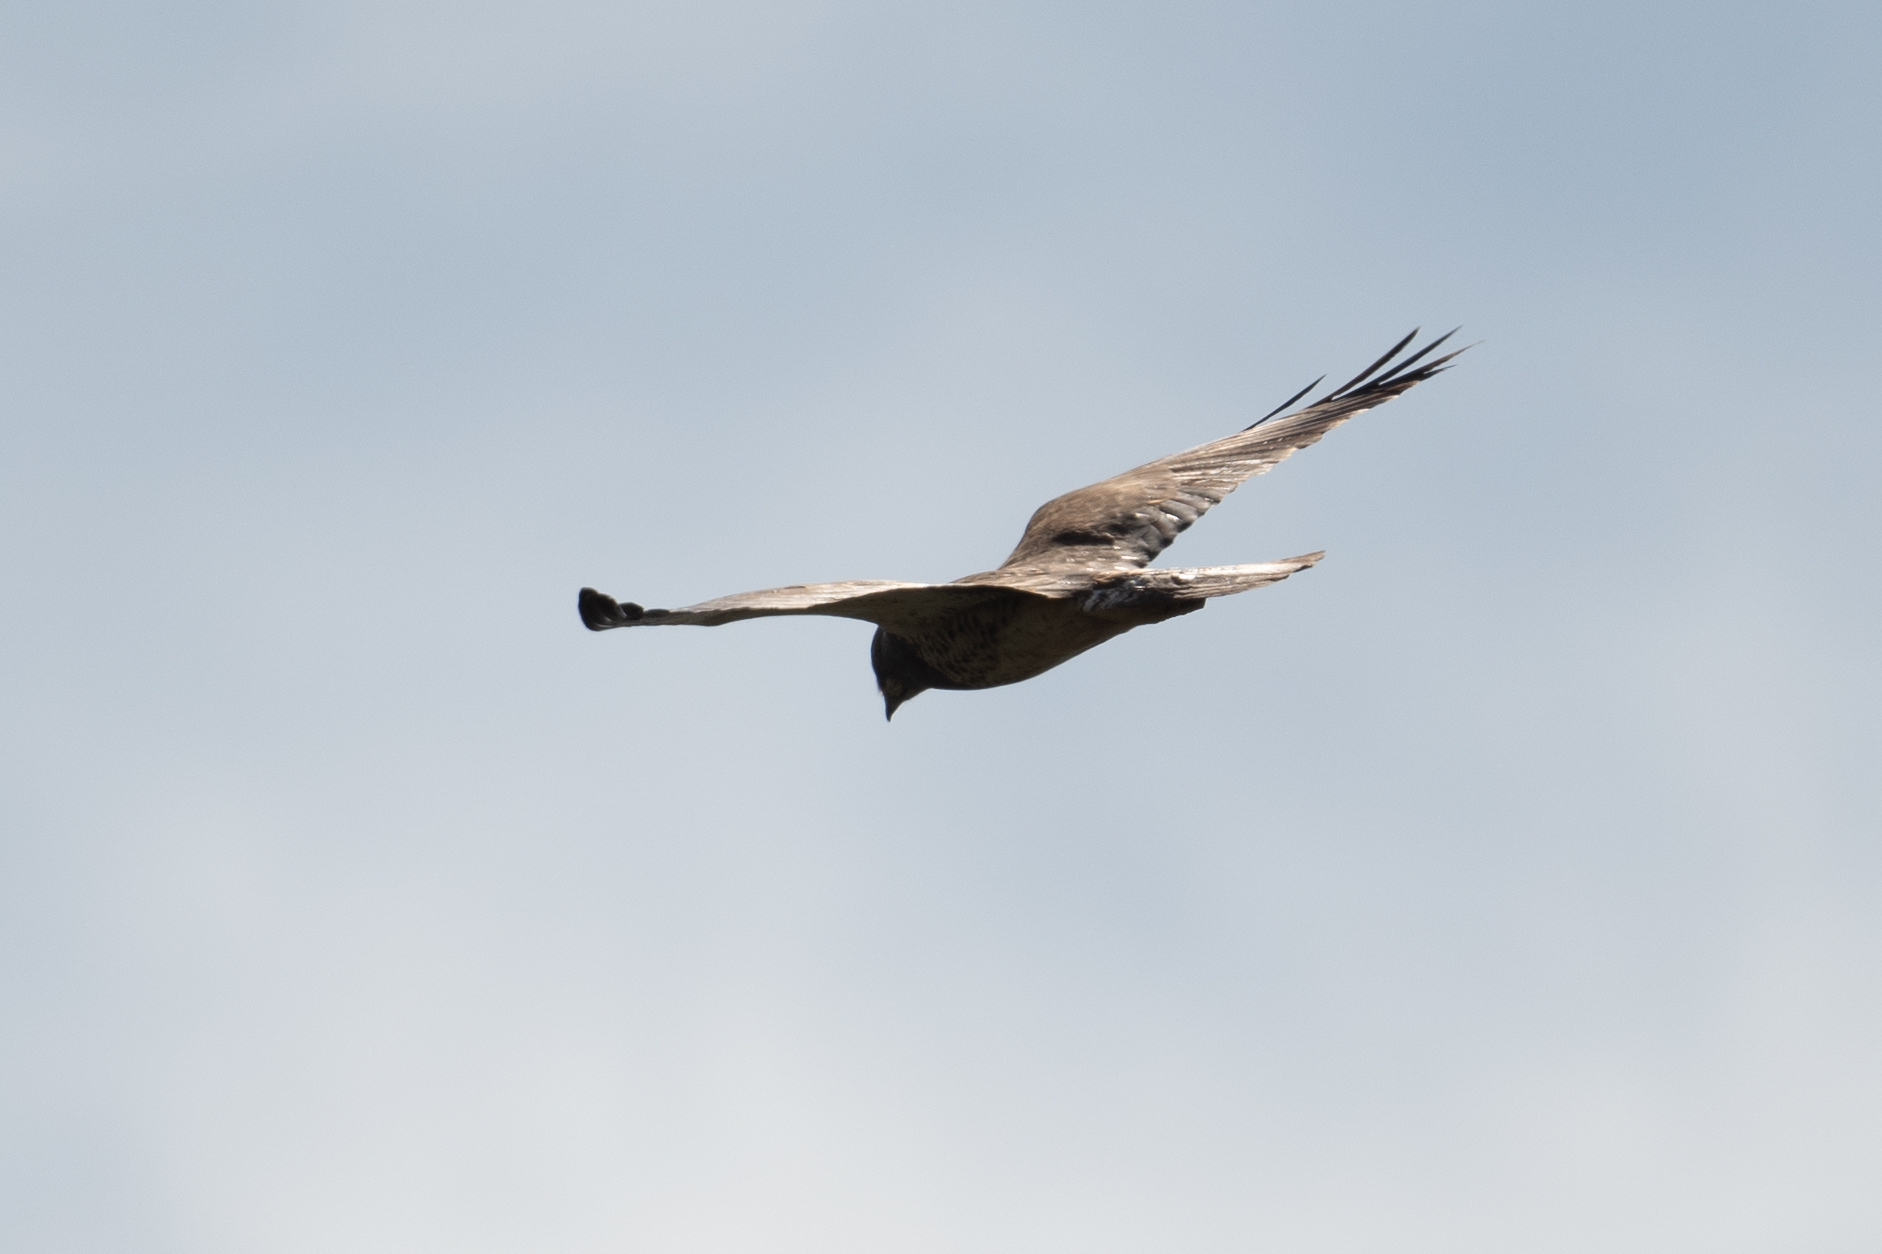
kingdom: Animalia
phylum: Chordata
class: Aves
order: Accipitriformes
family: Accipitridae
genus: Buteo
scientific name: Buteo swainsoni
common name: Swainson's hawk
